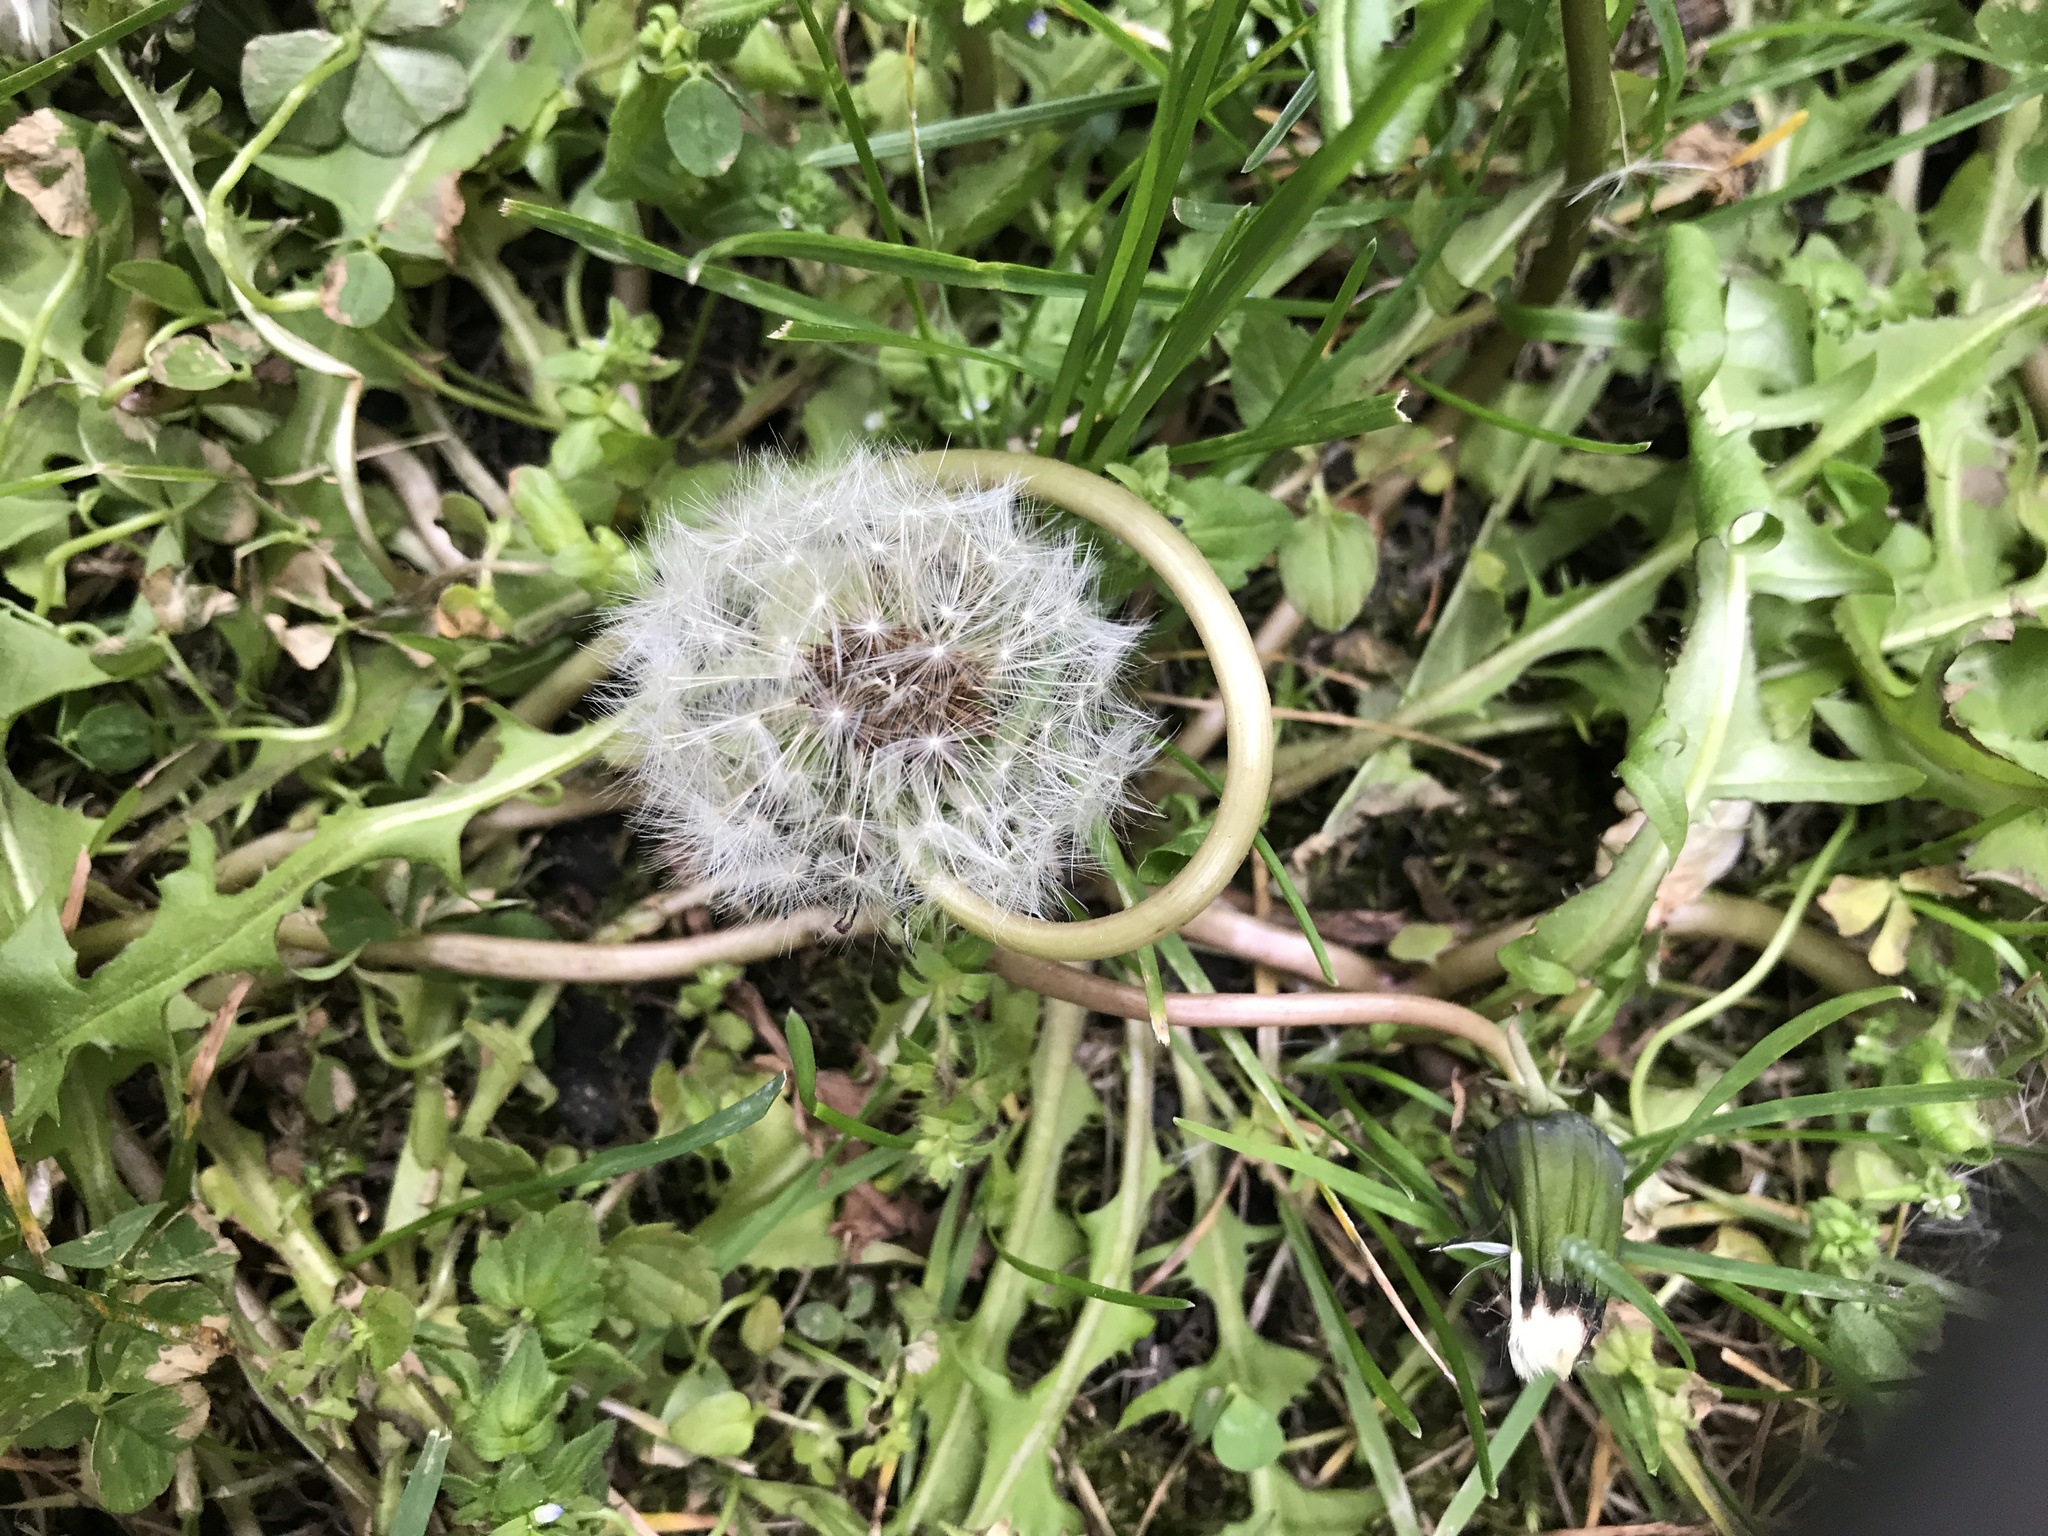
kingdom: Plantae
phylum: Tracheophyta
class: Magnoliopsida
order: Asterales
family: Asteraceae
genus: Taraxacum
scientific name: Taraxacum officinale
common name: Common dandelion
